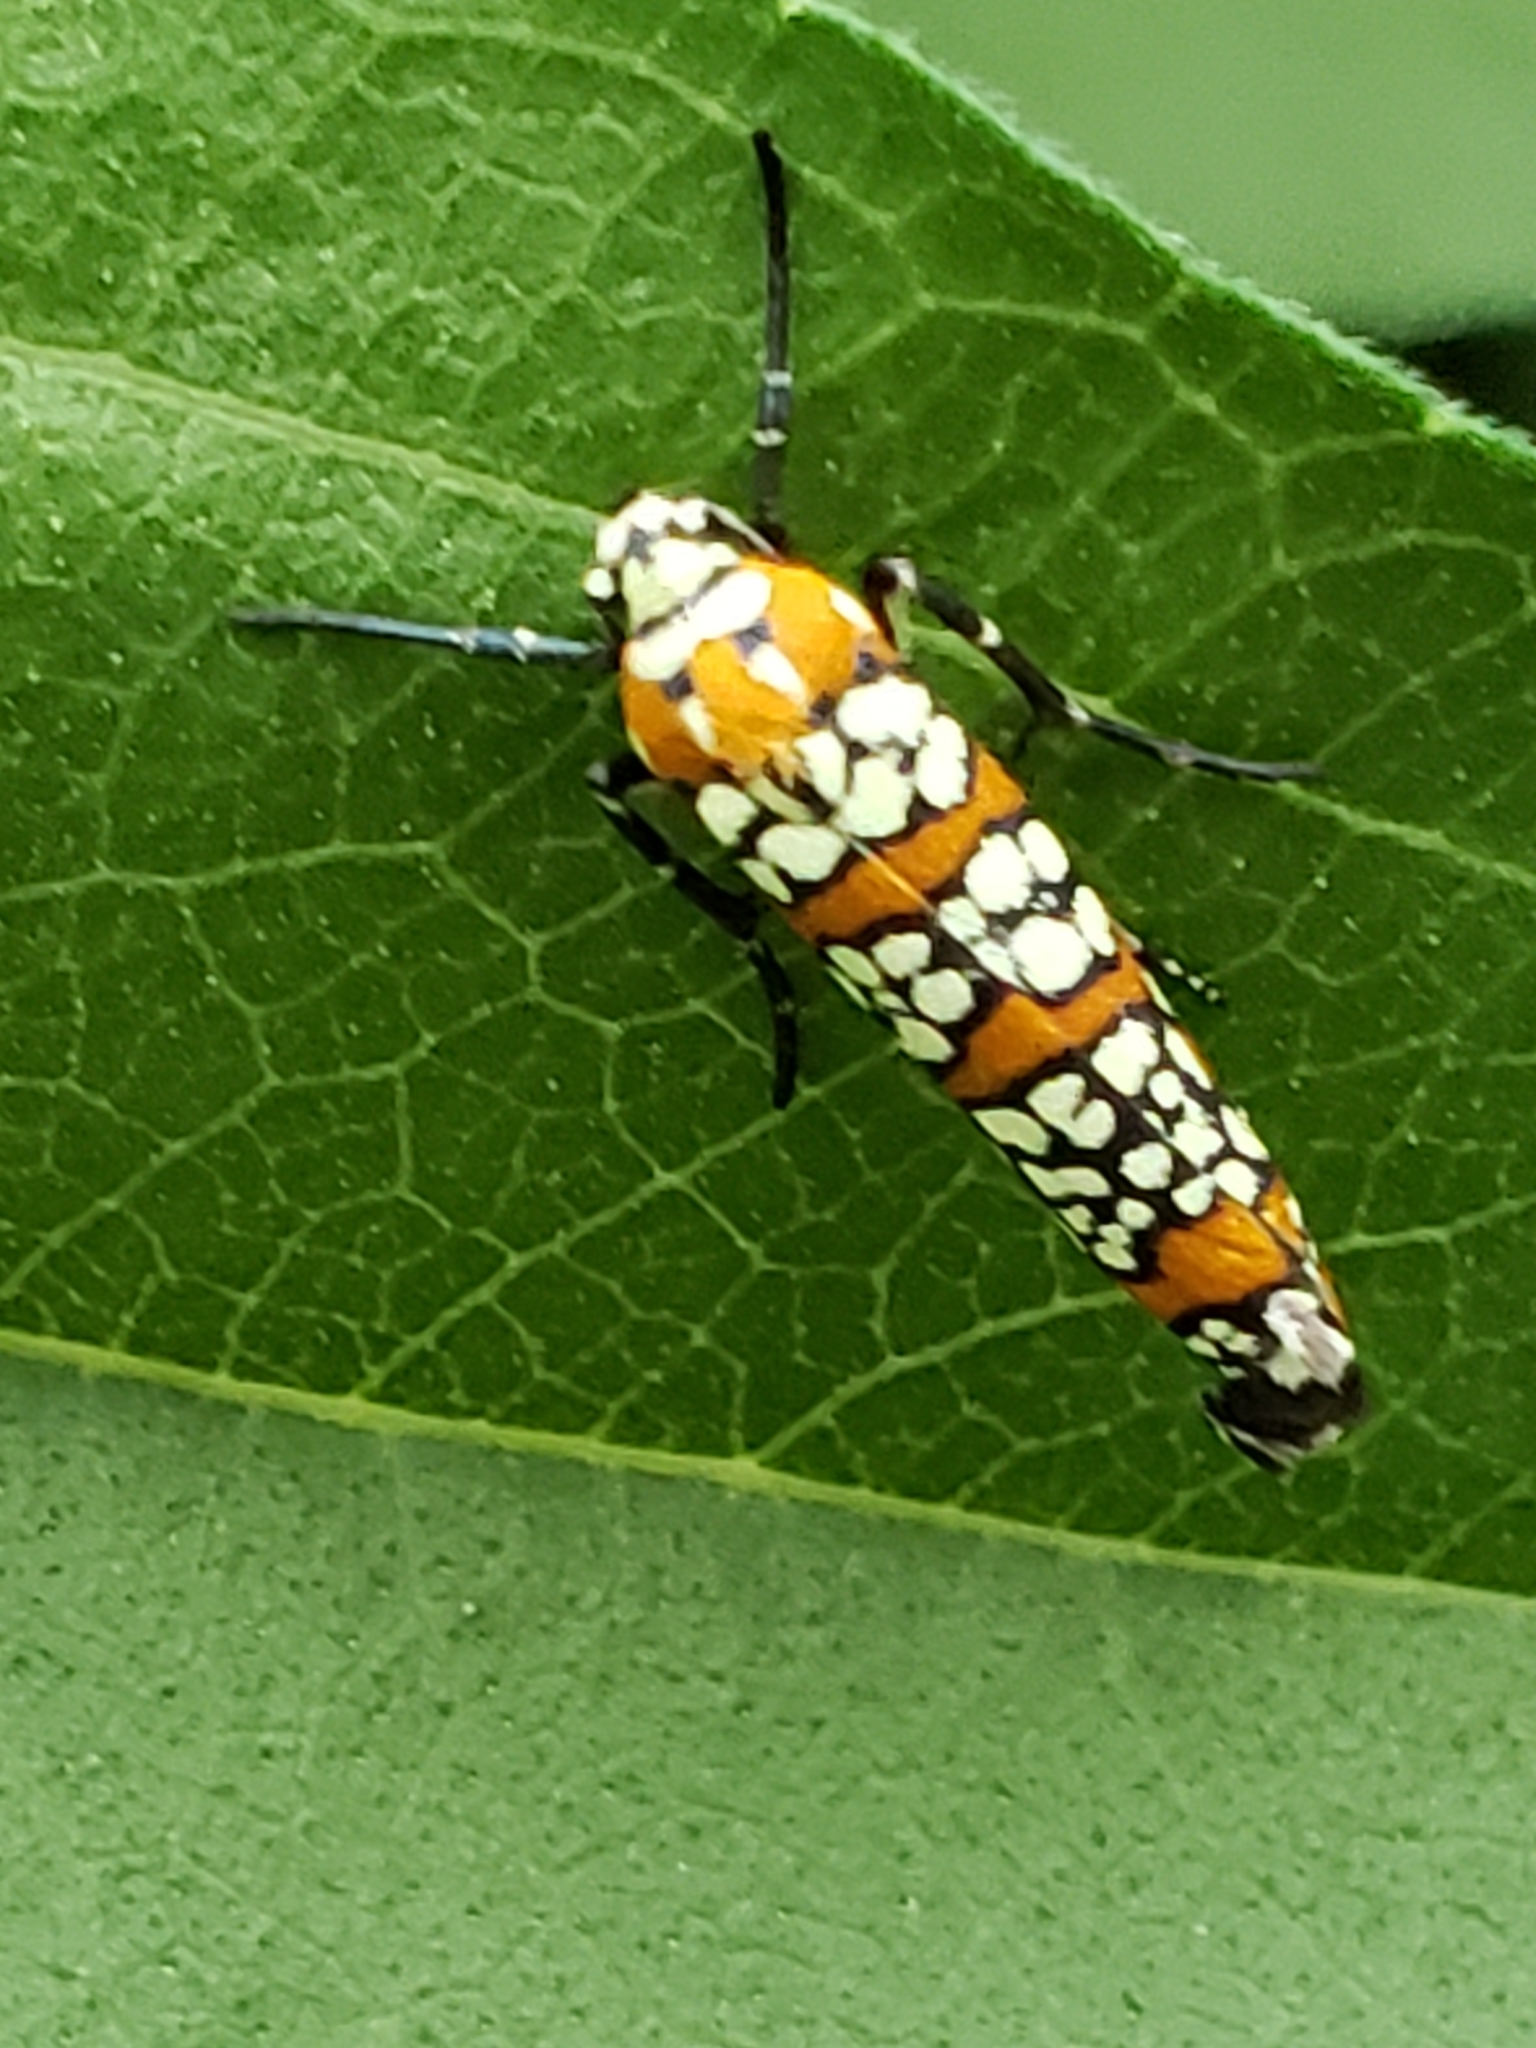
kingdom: Animalia
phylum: Arthropoda
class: Insecta
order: Lepidoptera
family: Attevidae
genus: Atteva
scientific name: Atteva punctella
